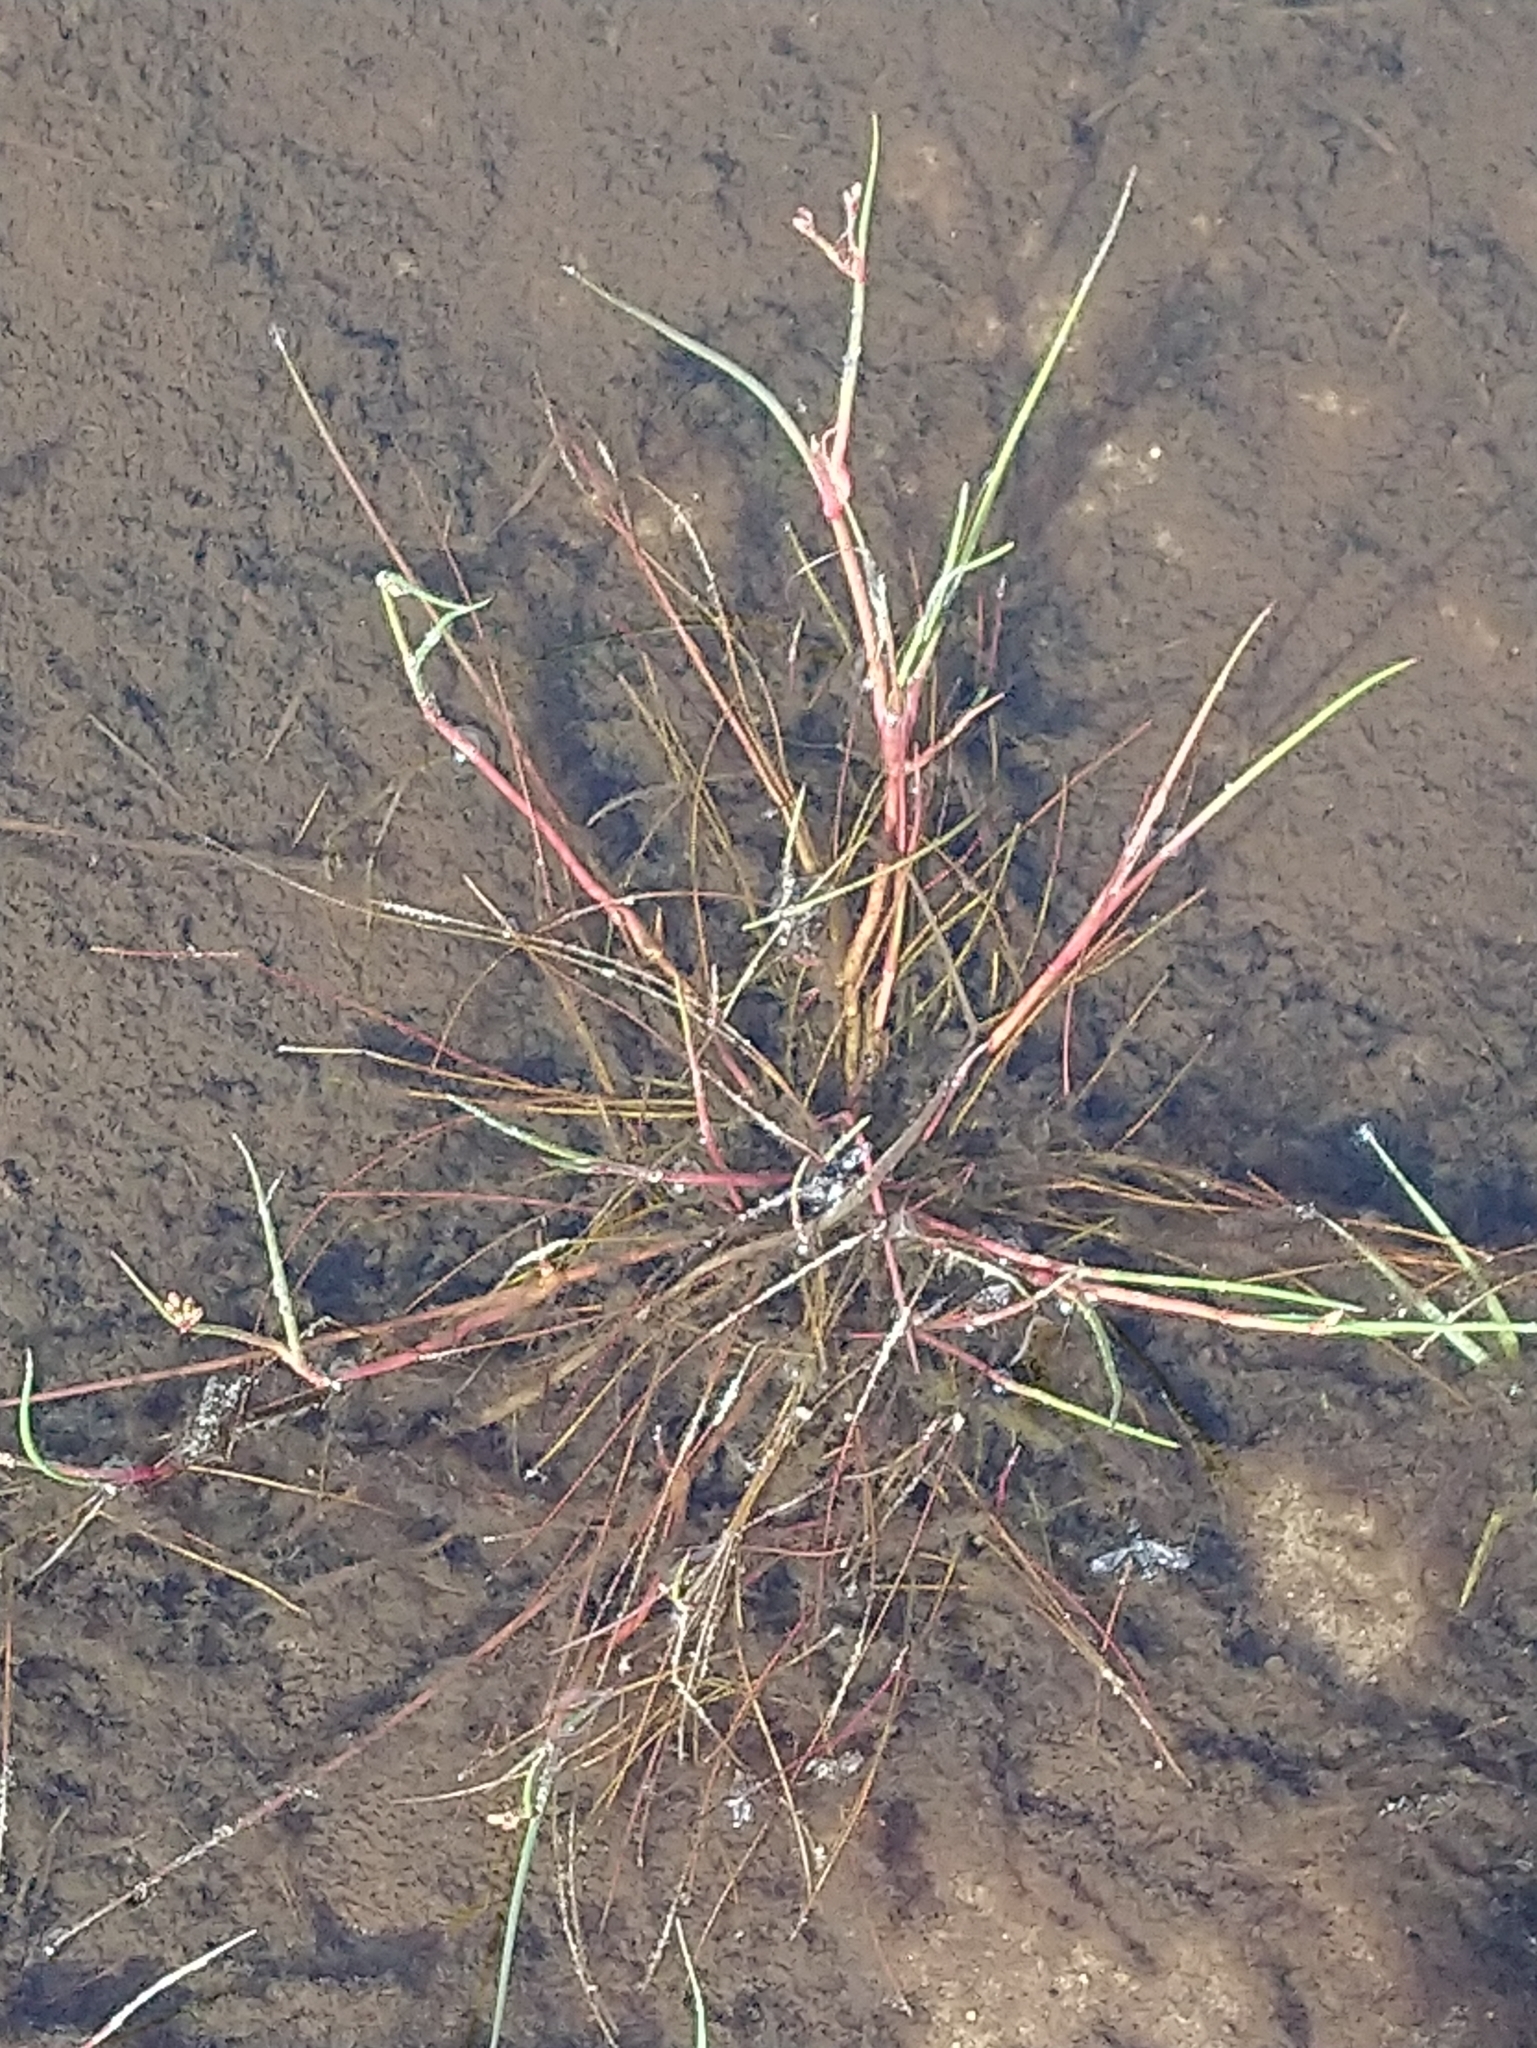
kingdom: Plantae
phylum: Tracheophyta
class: Liliopsida
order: Poales
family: Juncaceae
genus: Juncus
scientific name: Juncus articulatus
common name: Jointed rush
